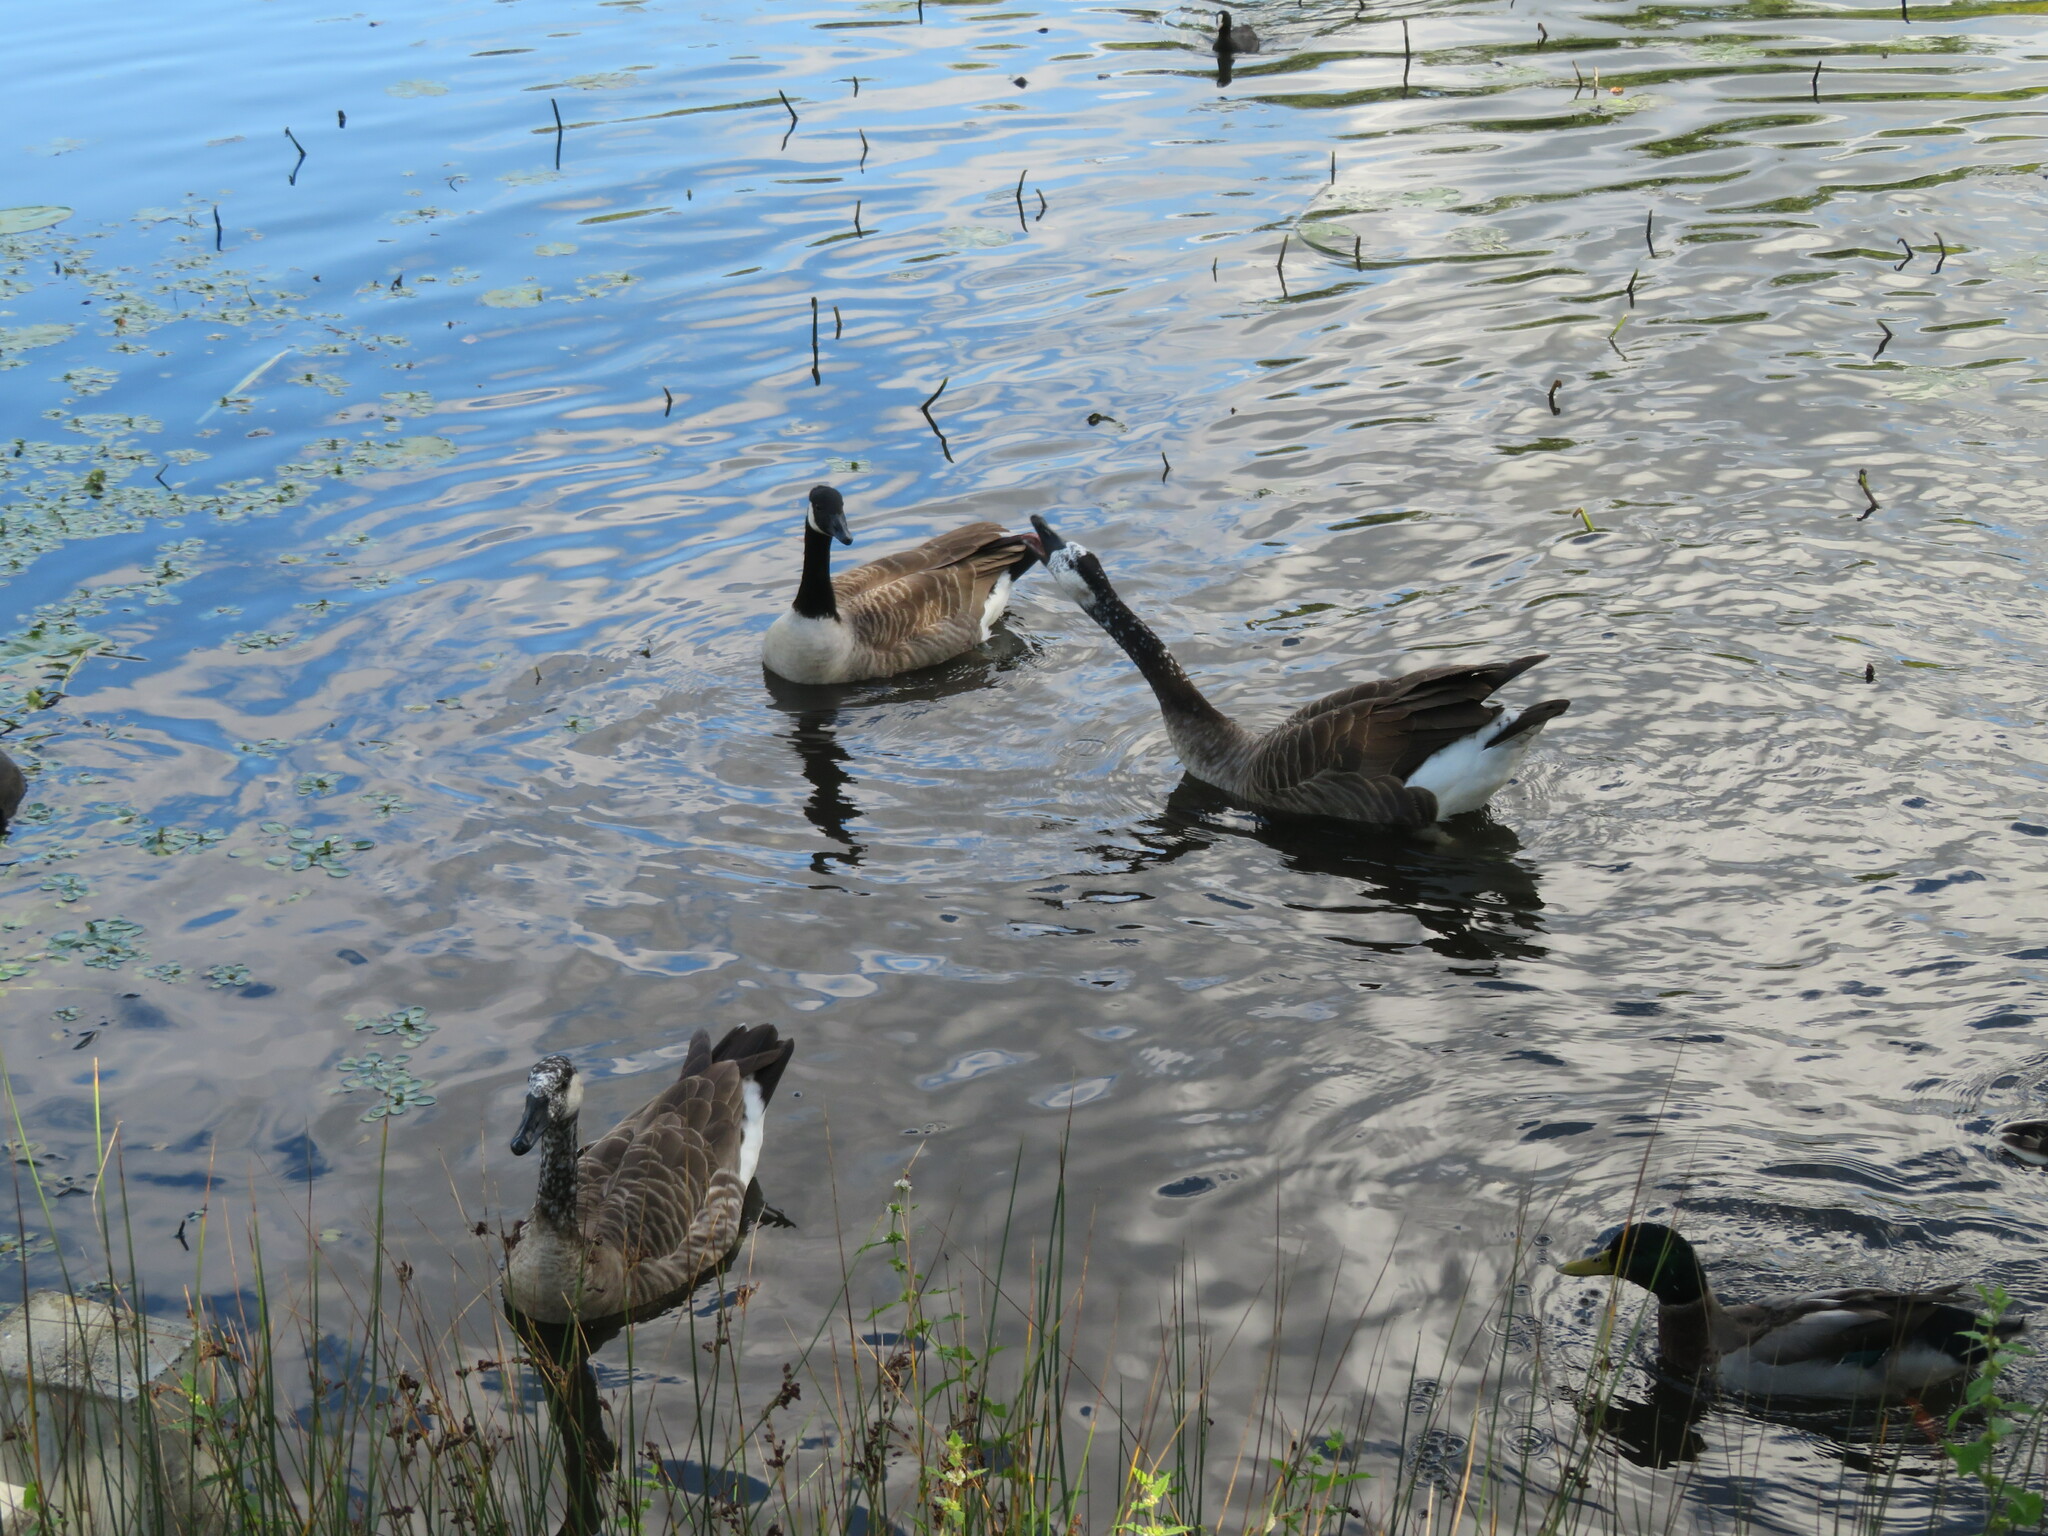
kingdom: Animalia
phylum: Chordata
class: Aves
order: Anseriformes
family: Anatidae
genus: Branta
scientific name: Branta canadensis
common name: Canada goose
